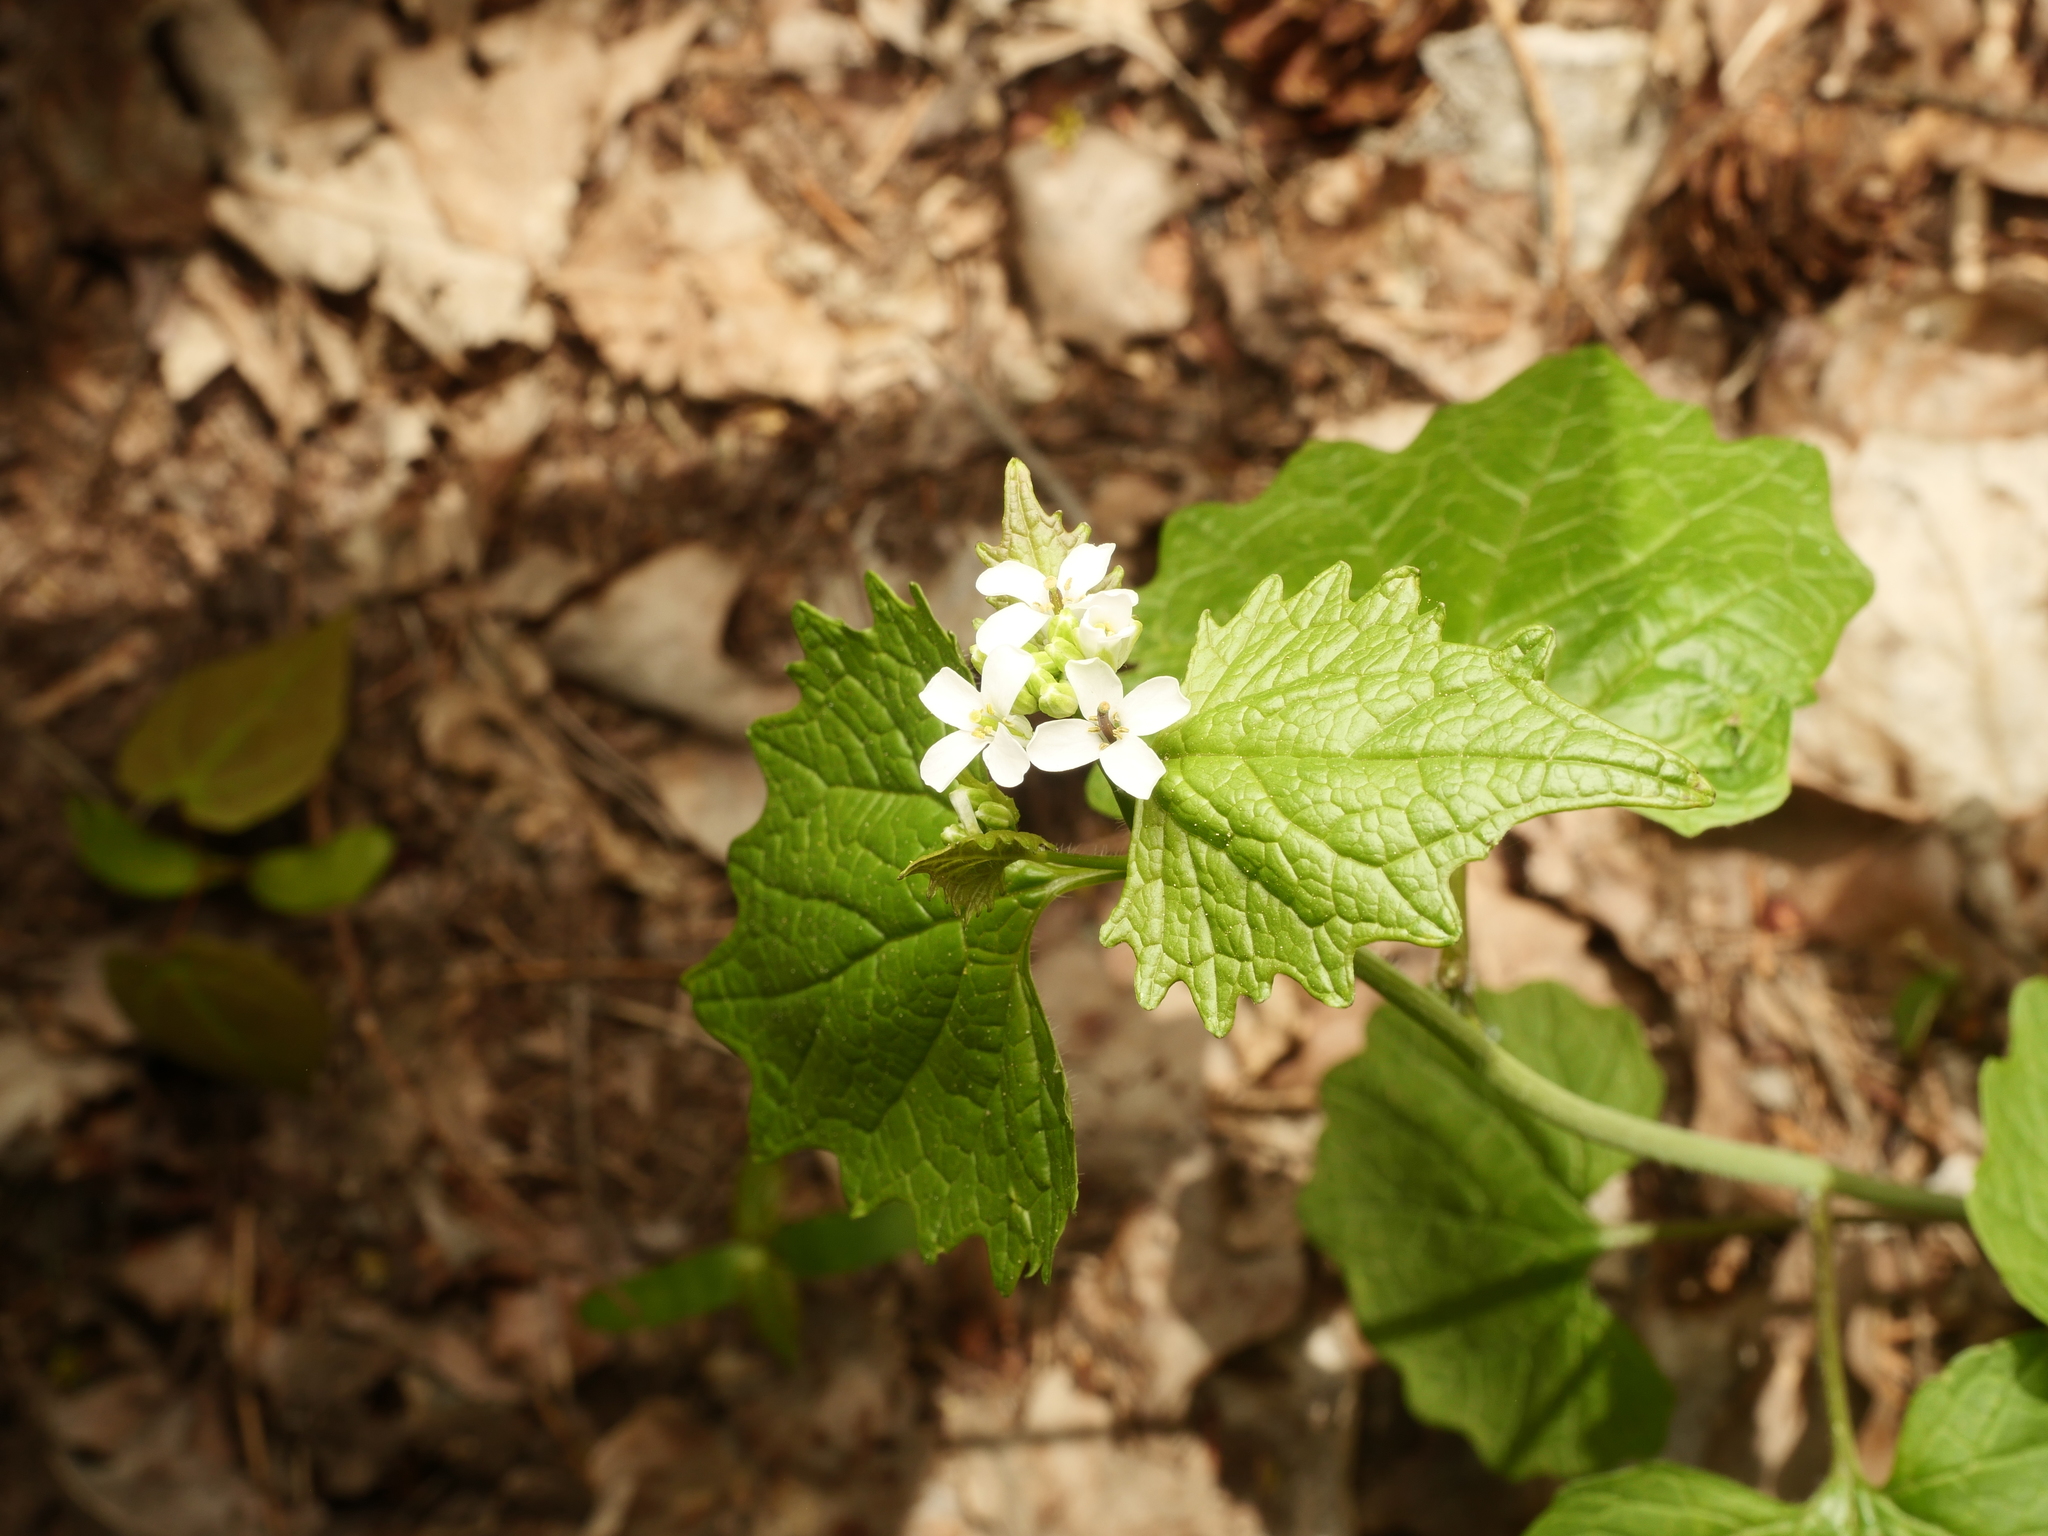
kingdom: Plantae
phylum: Tracheophyta
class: Magnoliopsida
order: Brassicales
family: Brassicaceae
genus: Alliaria
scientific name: Alliaria petiolata
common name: Garlic mustard
